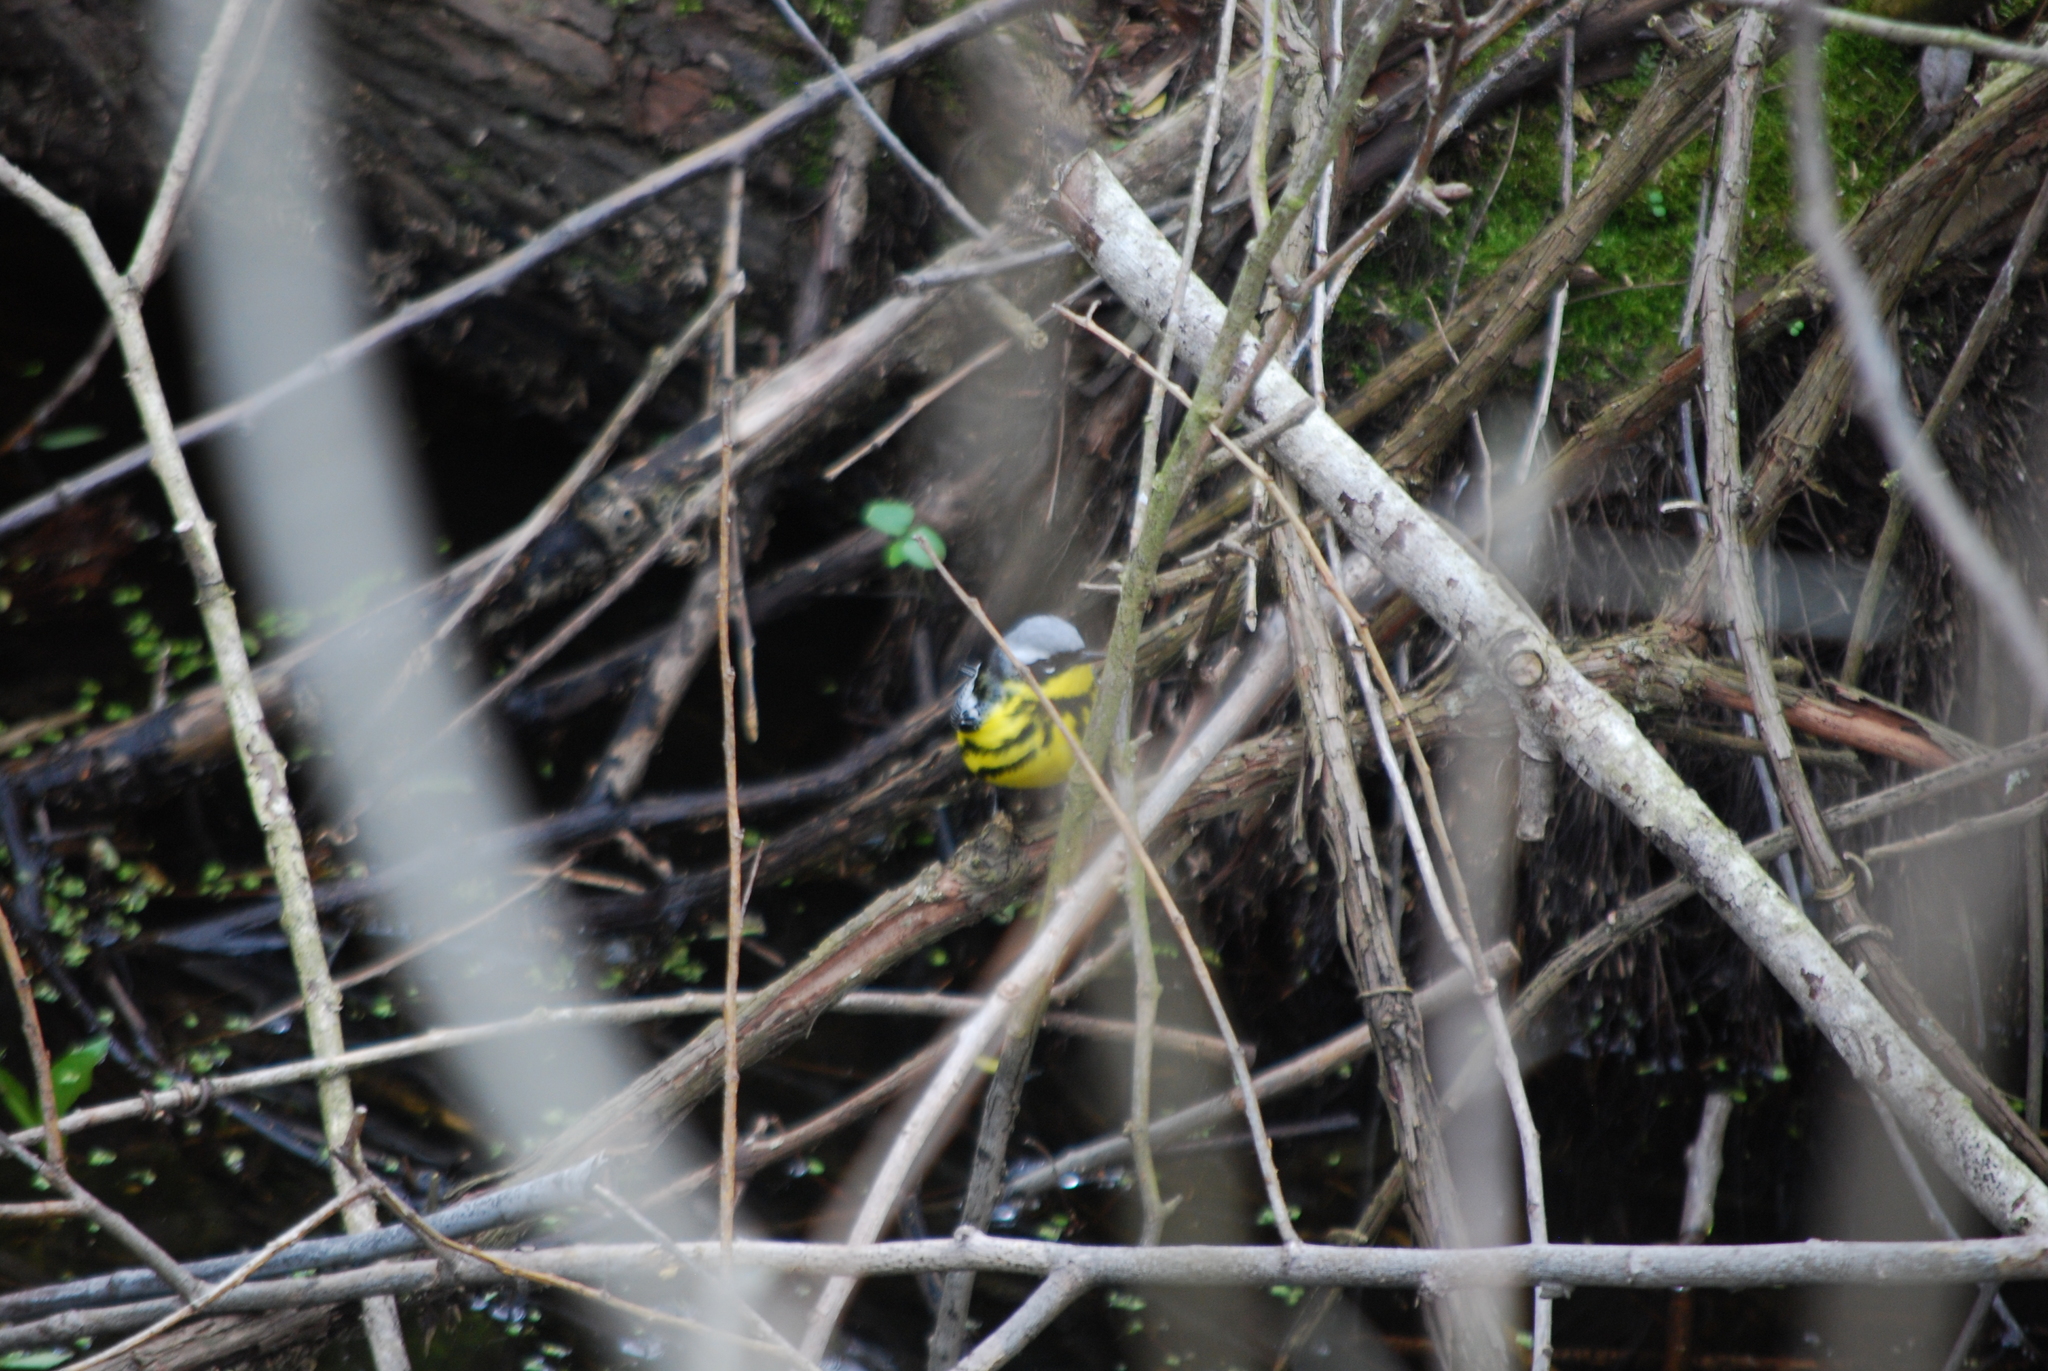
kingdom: Animalia
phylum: Chordata
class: Aves
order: Passeriformes
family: Parulidae
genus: Setophaga
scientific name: Setophaga magnolia
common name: Magnolia warbler
